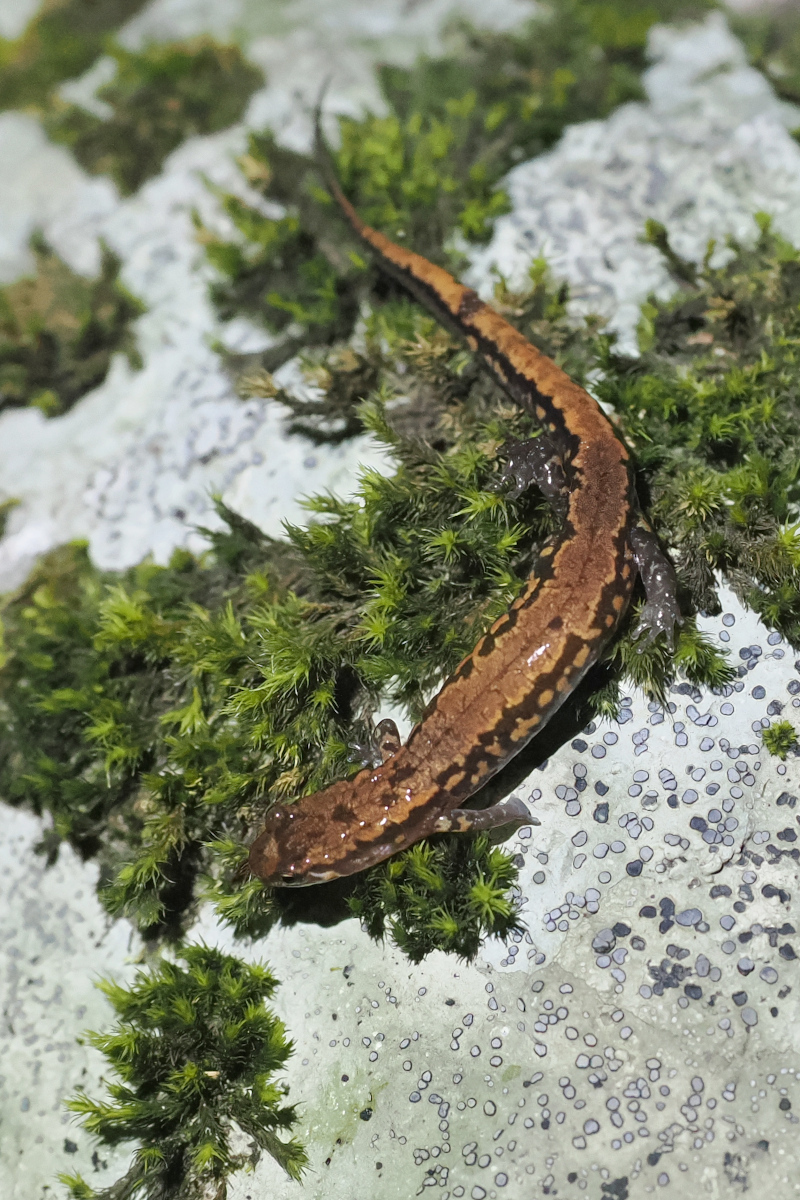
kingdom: Animalia
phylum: Chordata
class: Amphibia
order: Caudata
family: Plethodontidae
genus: Desmognathus
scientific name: Desmognathus orestes
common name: Blue ridge dusky salamander
